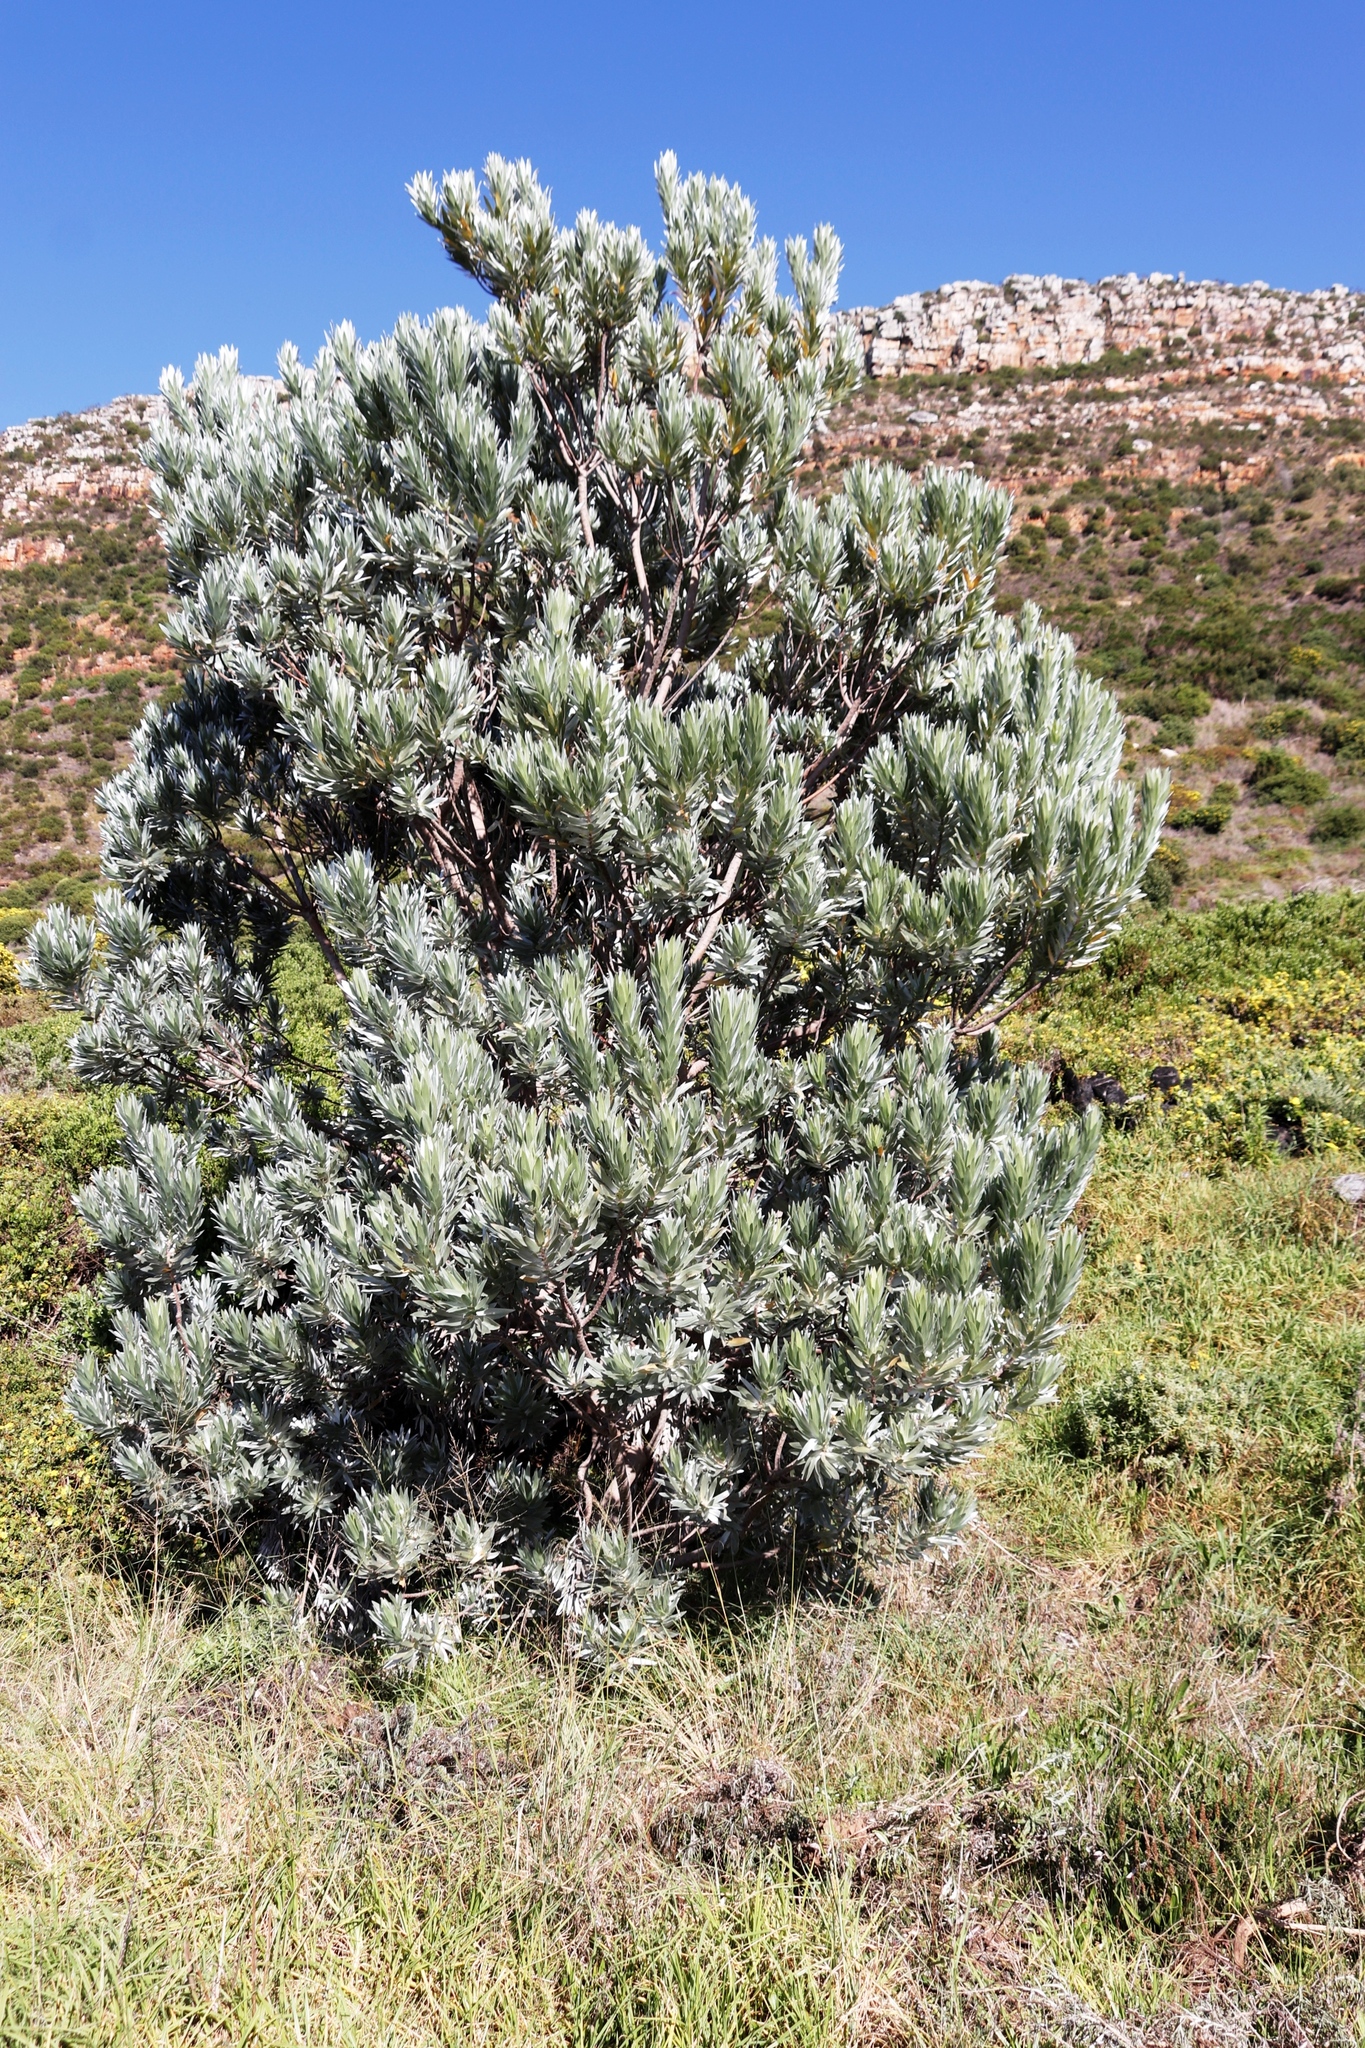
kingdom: Plantae
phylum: Tracheophyta
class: Magnoliopsida
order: Proteales
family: Proteaceae
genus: Leucadendron
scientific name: Leucadendron argenteum
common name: Cape silver tree
